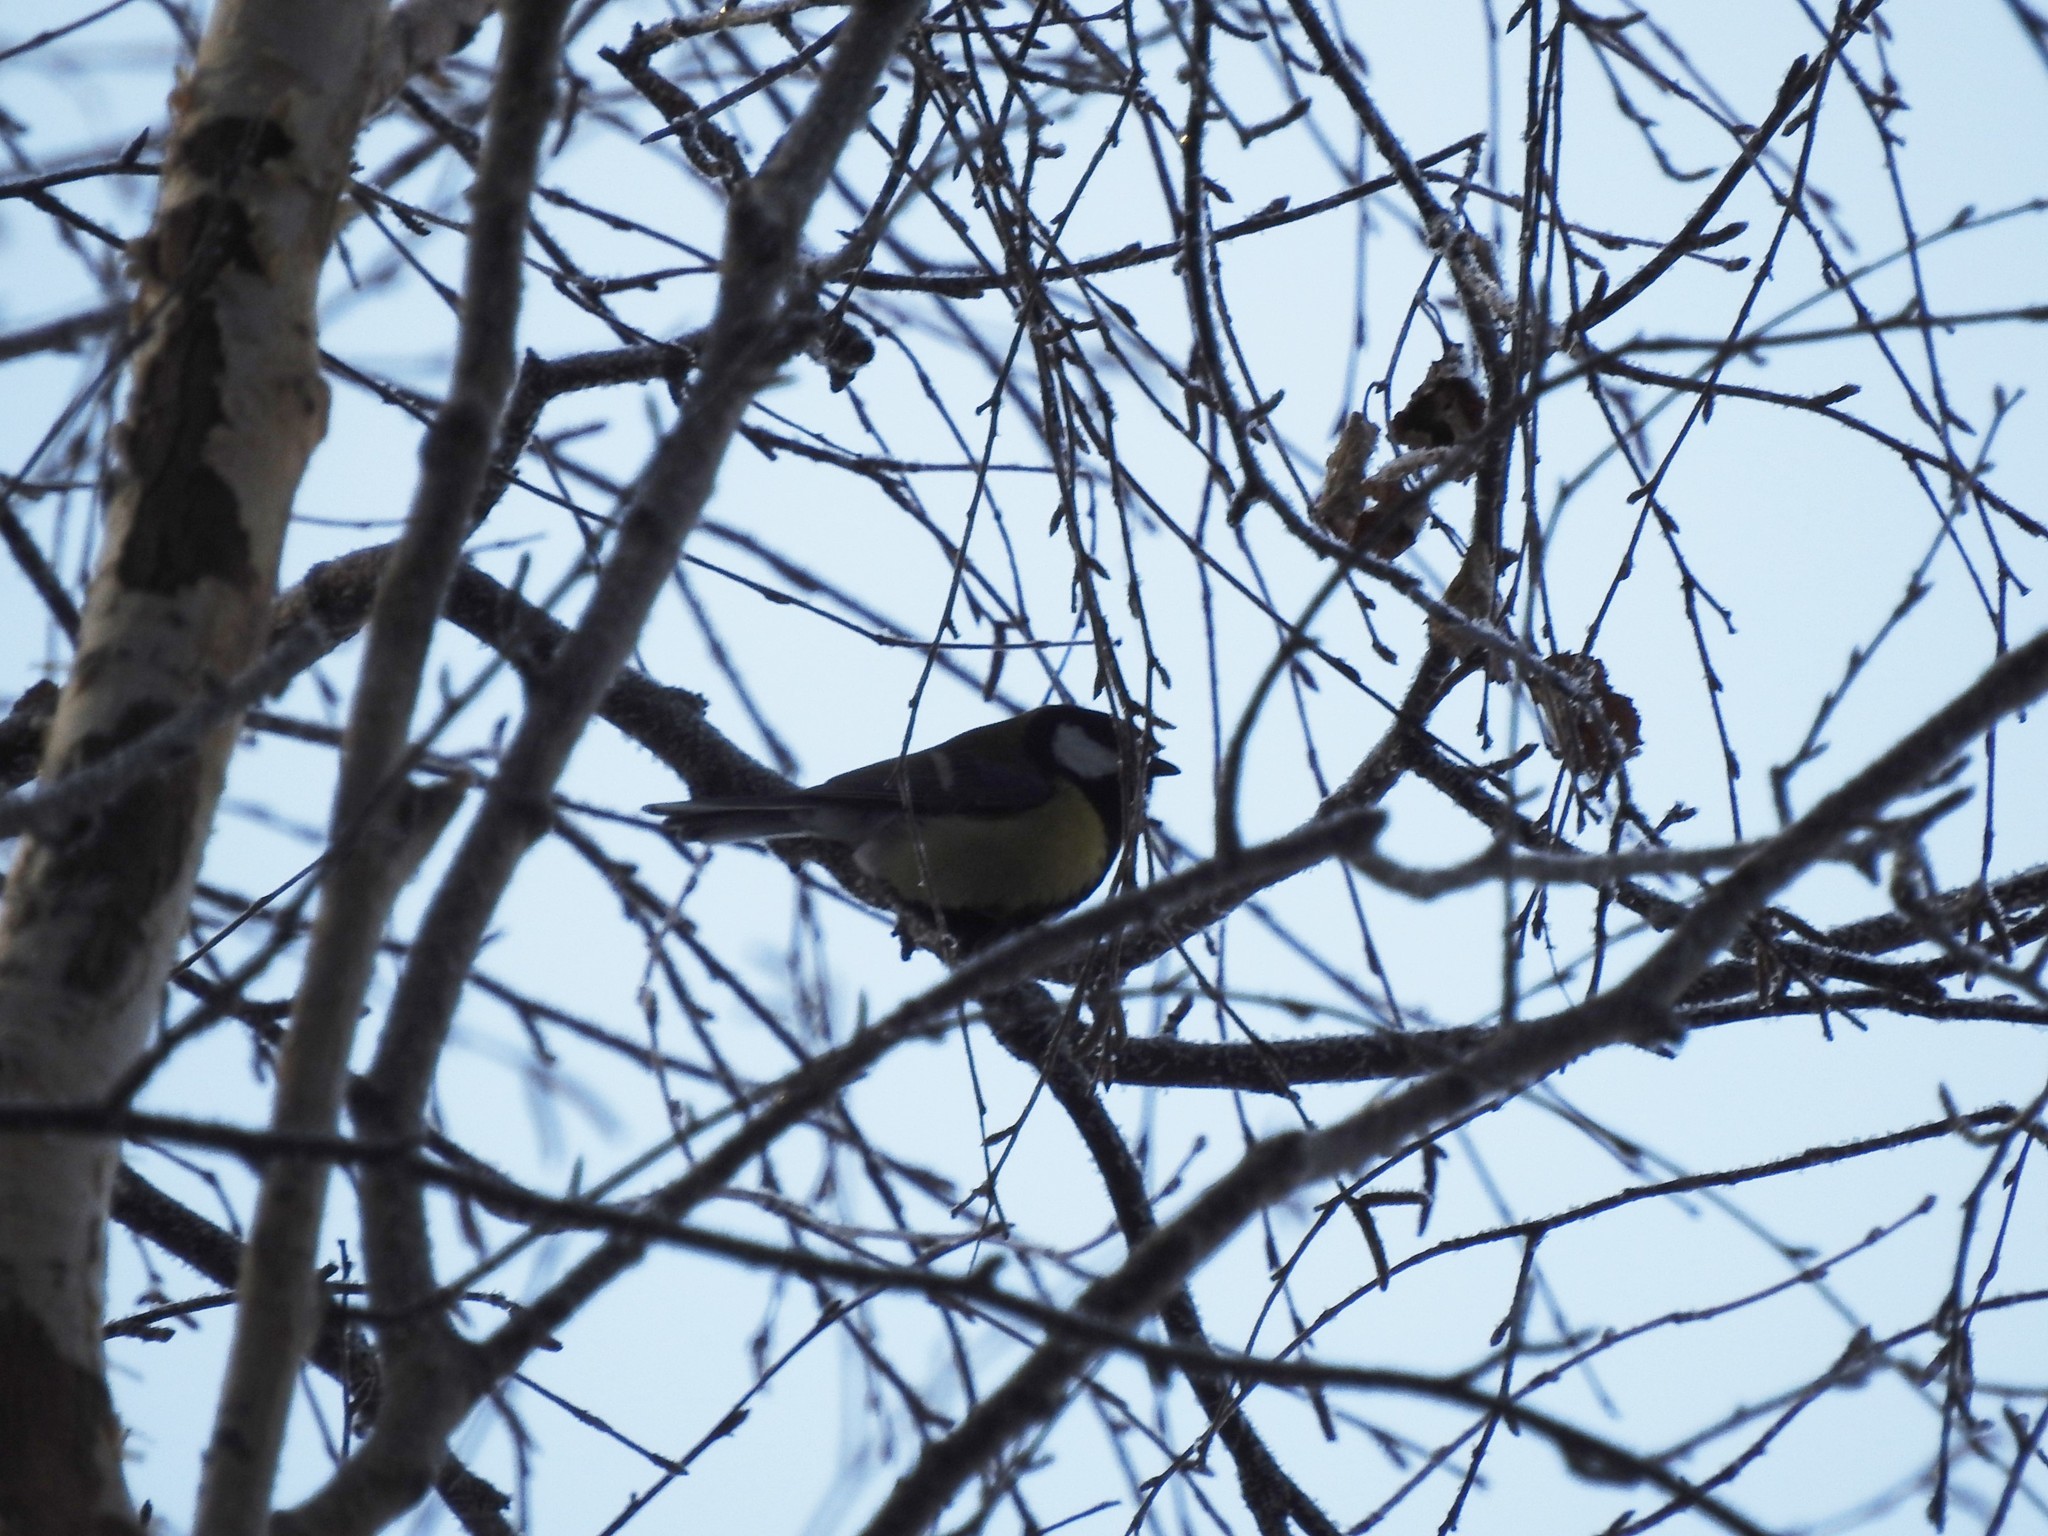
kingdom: Animalia
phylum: Chordata
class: Aves
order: Passeriformes
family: Paridae
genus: Parus
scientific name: Parus major
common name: Great tit
